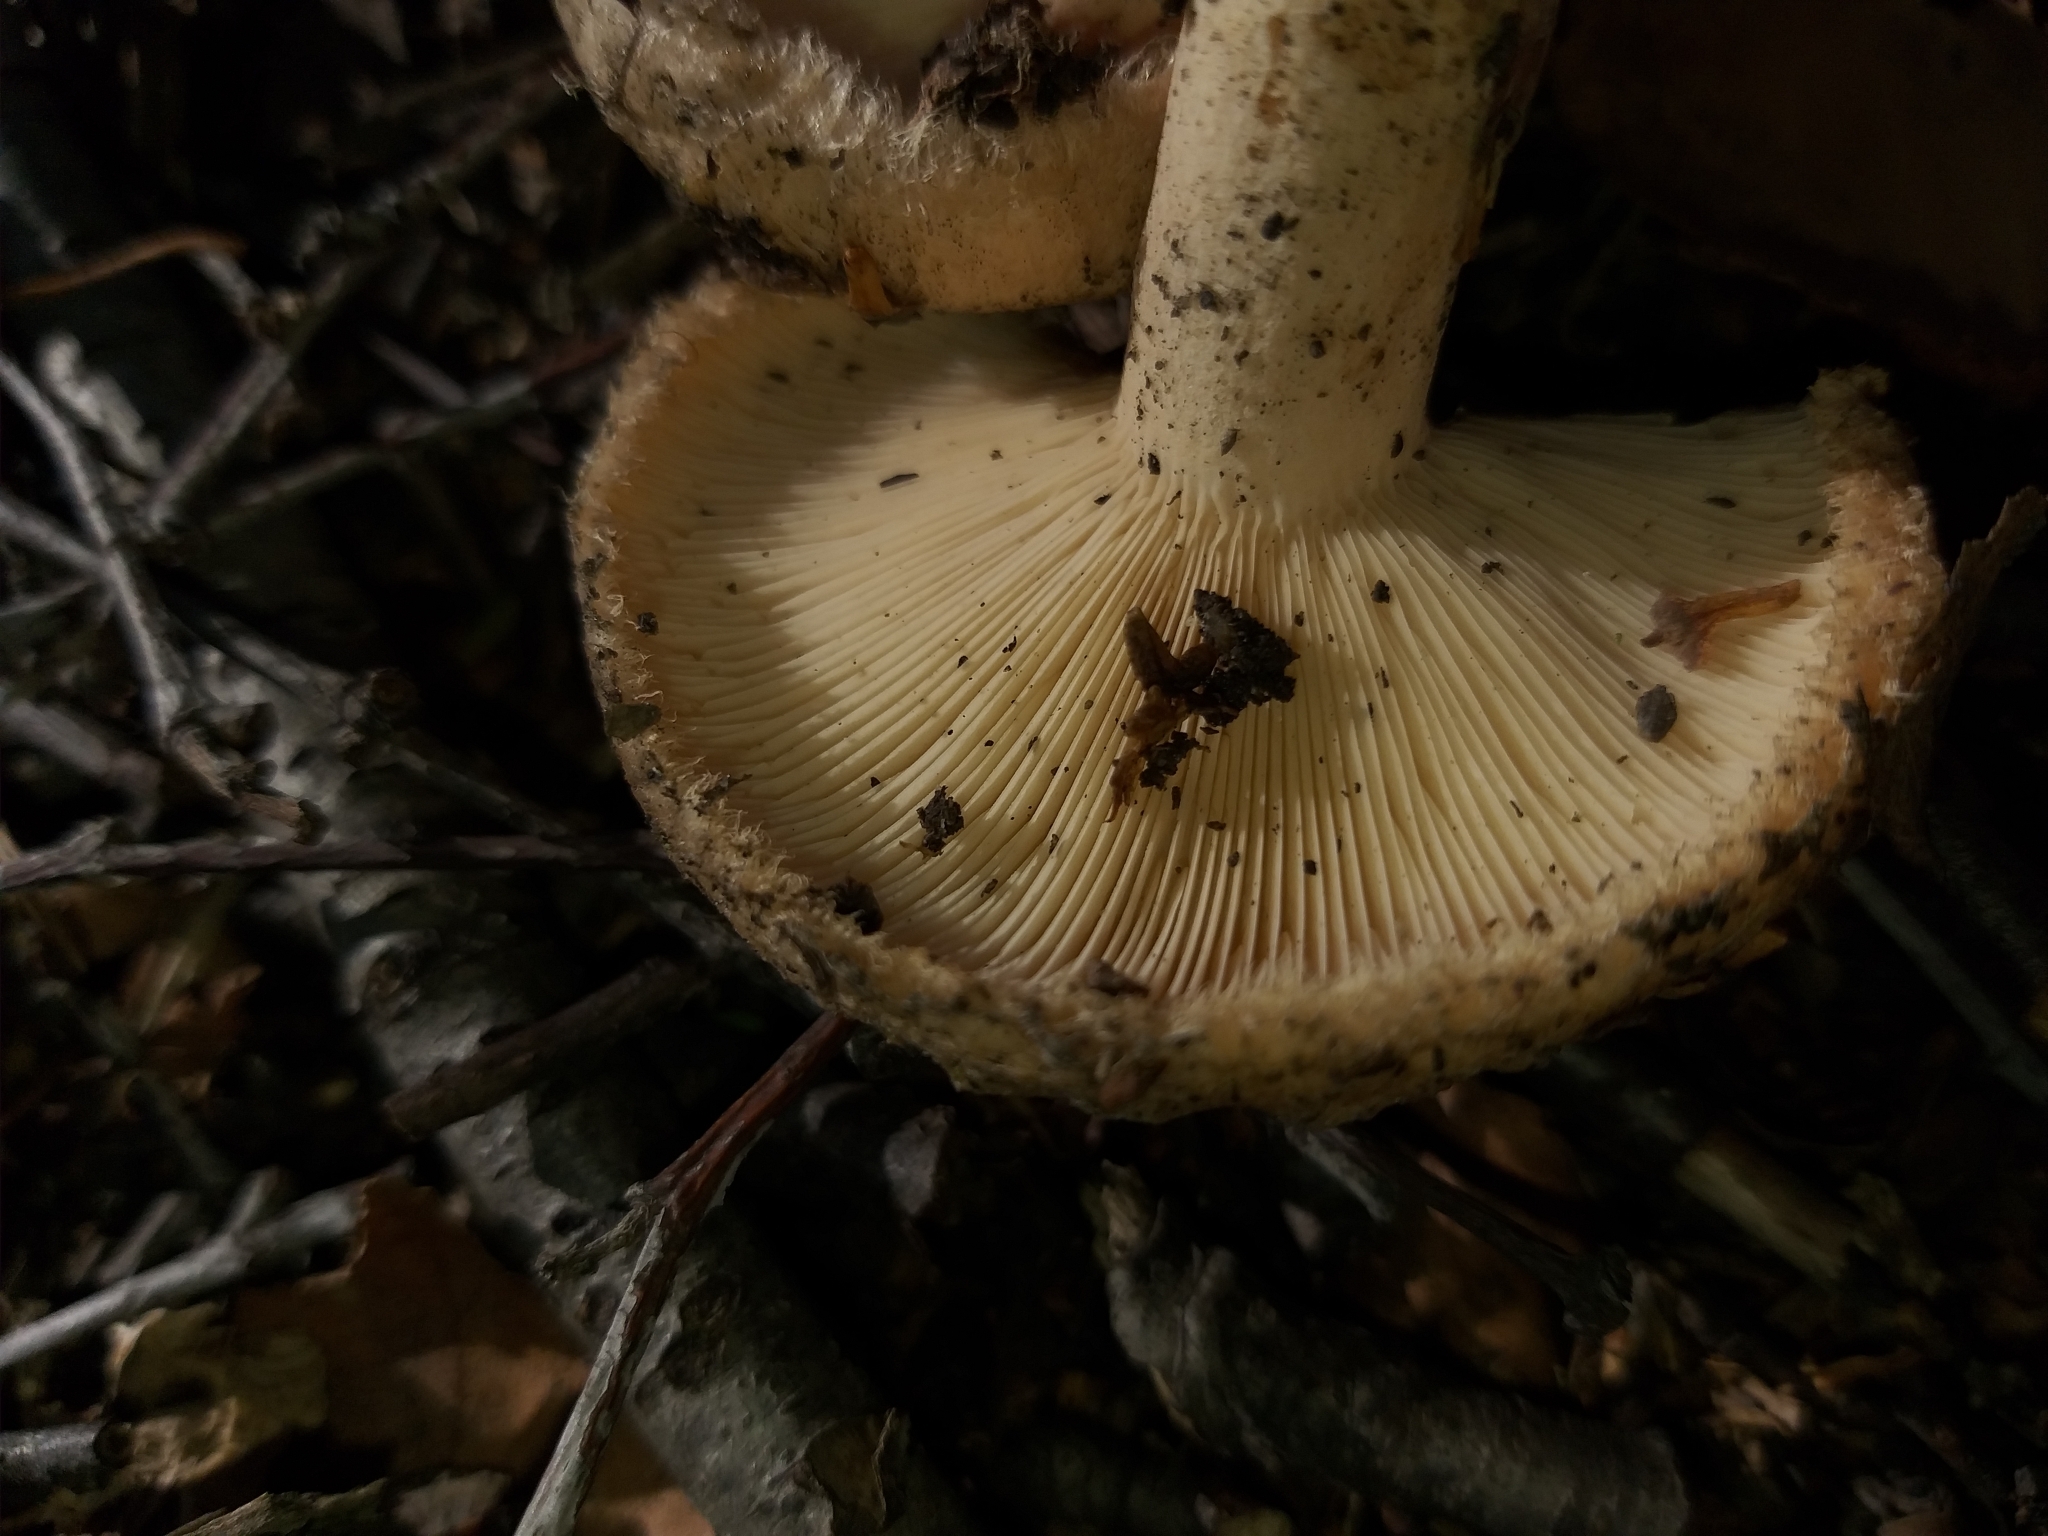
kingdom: Fungi
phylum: Basidiomycota
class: Agaricomycetes
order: Russulales
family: Russulaceae
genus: Lactarius
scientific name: Lactarius pubescens
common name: Bearded milkcap
